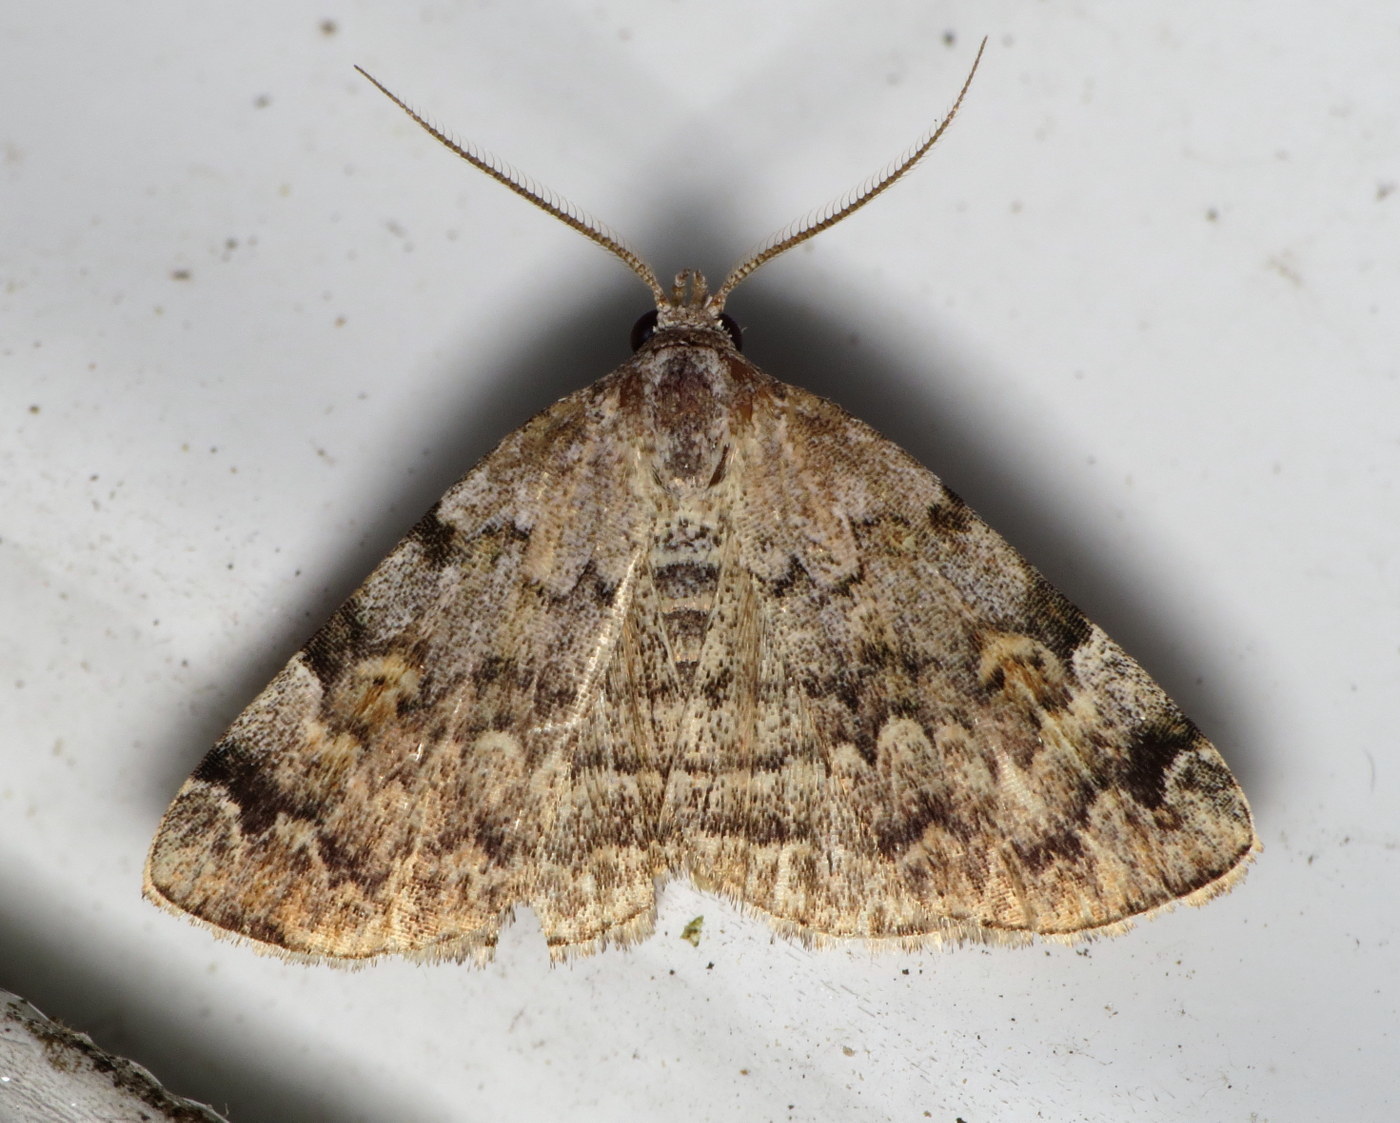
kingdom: Animalia
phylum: Arthropoda
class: Insecta
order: Lepidoptera
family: Erebidae
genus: Idia
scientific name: Idia americalis
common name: American idia moth
